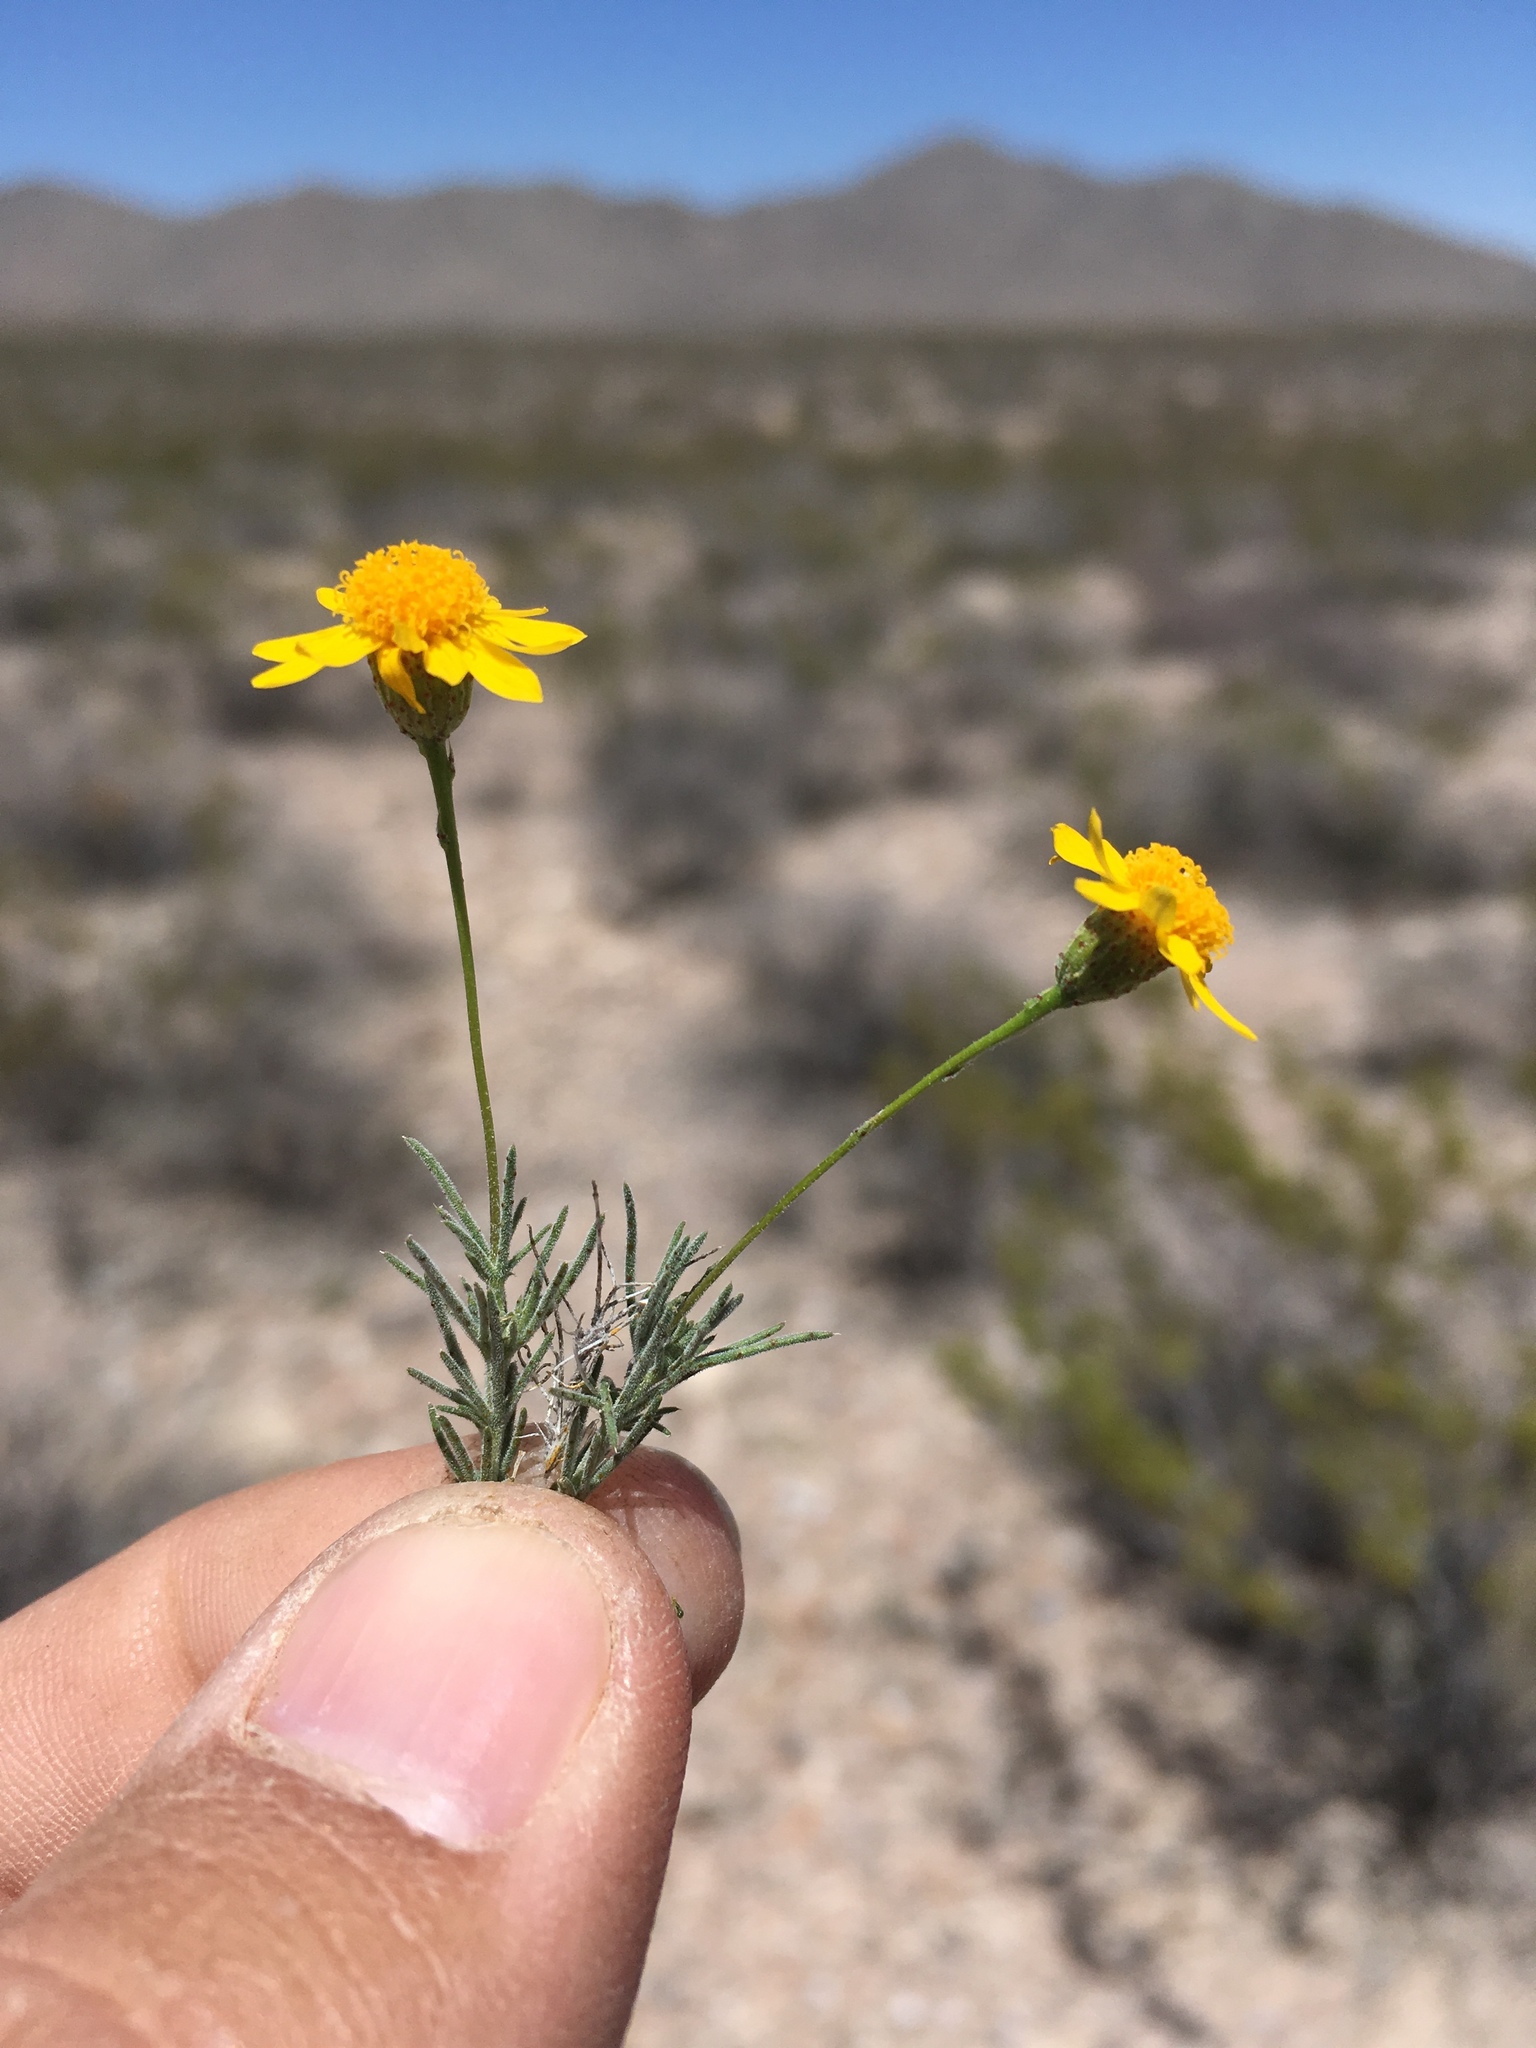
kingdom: Plantae
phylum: Tracheophyta
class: Magnoliopsida
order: Asterales
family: Asteraceae
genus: Thymophylla
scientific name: Thymophylla pentachaeta
